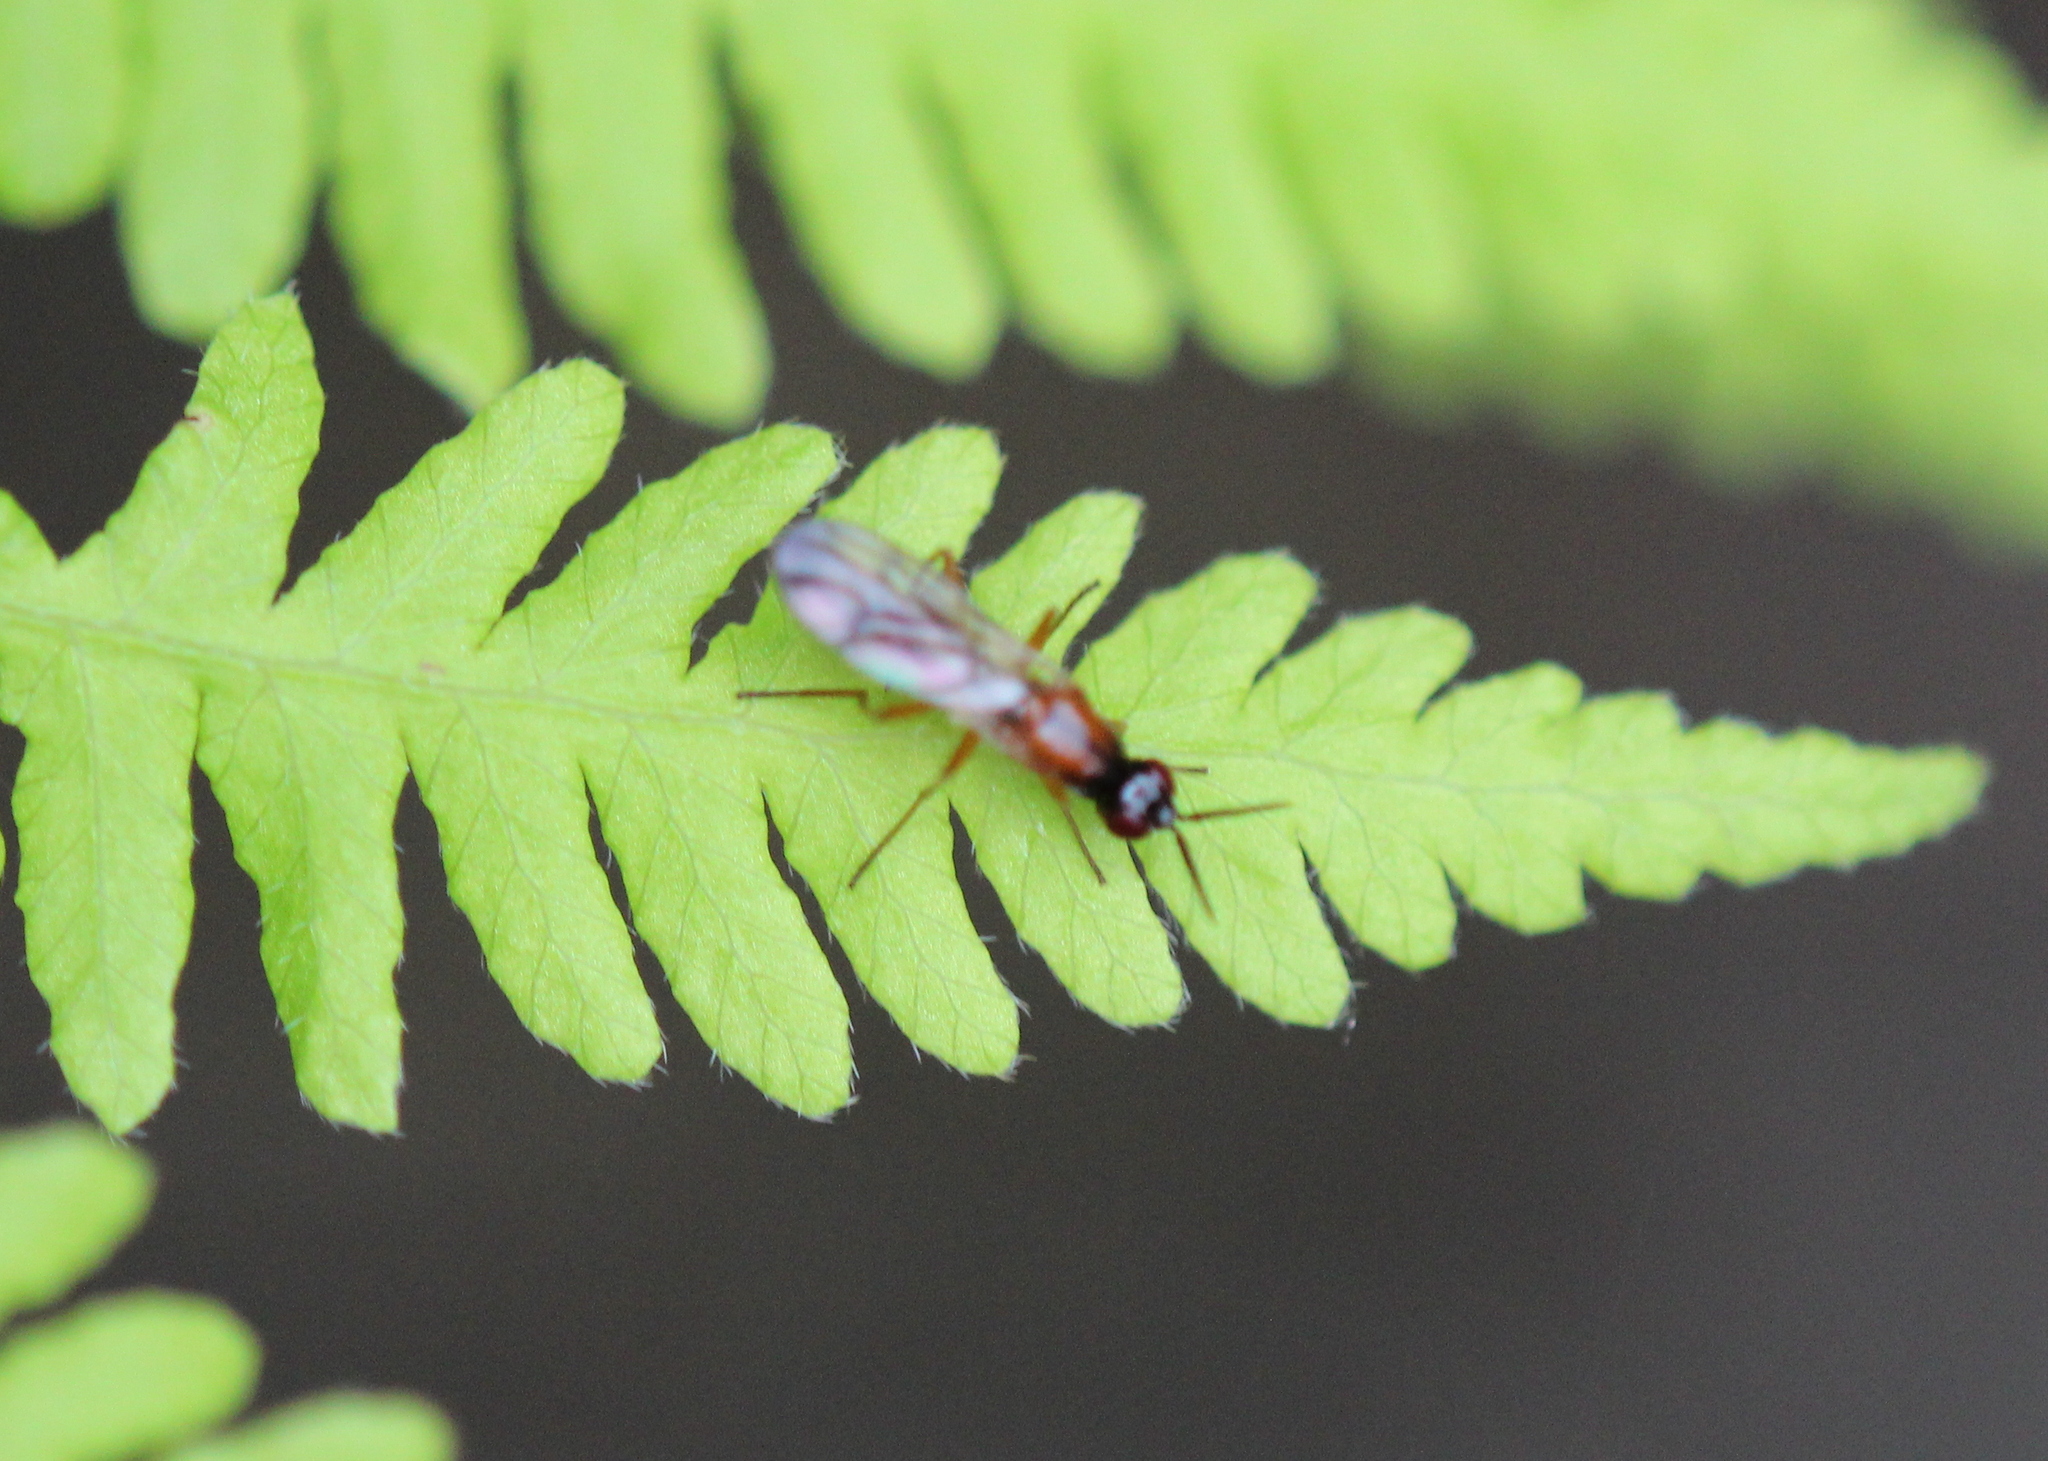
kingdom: Animalia
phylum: Arthropoda
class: Insecta
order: Diptera
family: Psilidae
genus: Loxocera
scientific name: Loxocera cylindrica
